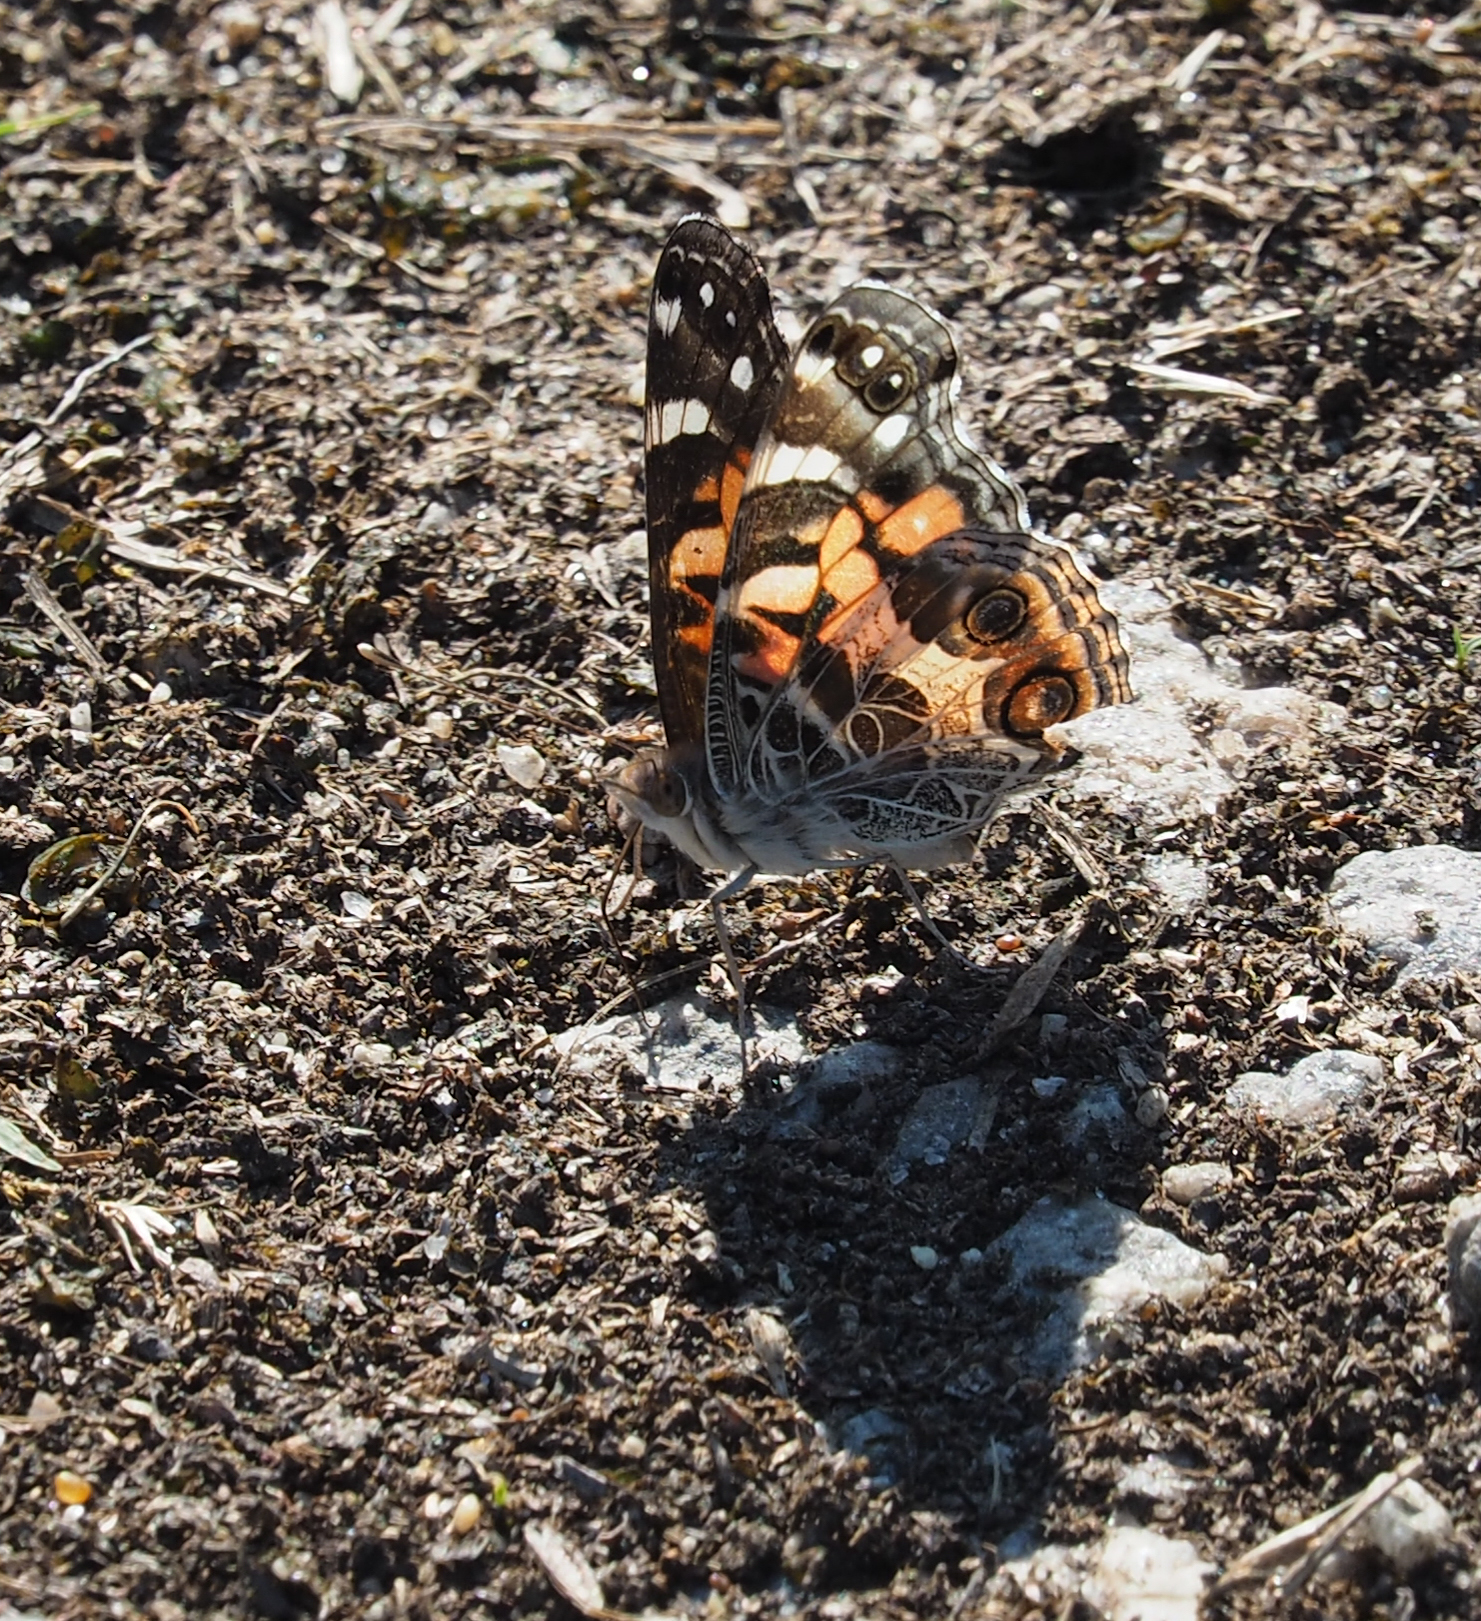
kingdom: Animalia
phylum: Arthropoda
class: Insecta
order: Lepidoptera
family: Nymphalidae
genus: Vanessa
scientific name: Vanessa virginiensis
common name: American lady
